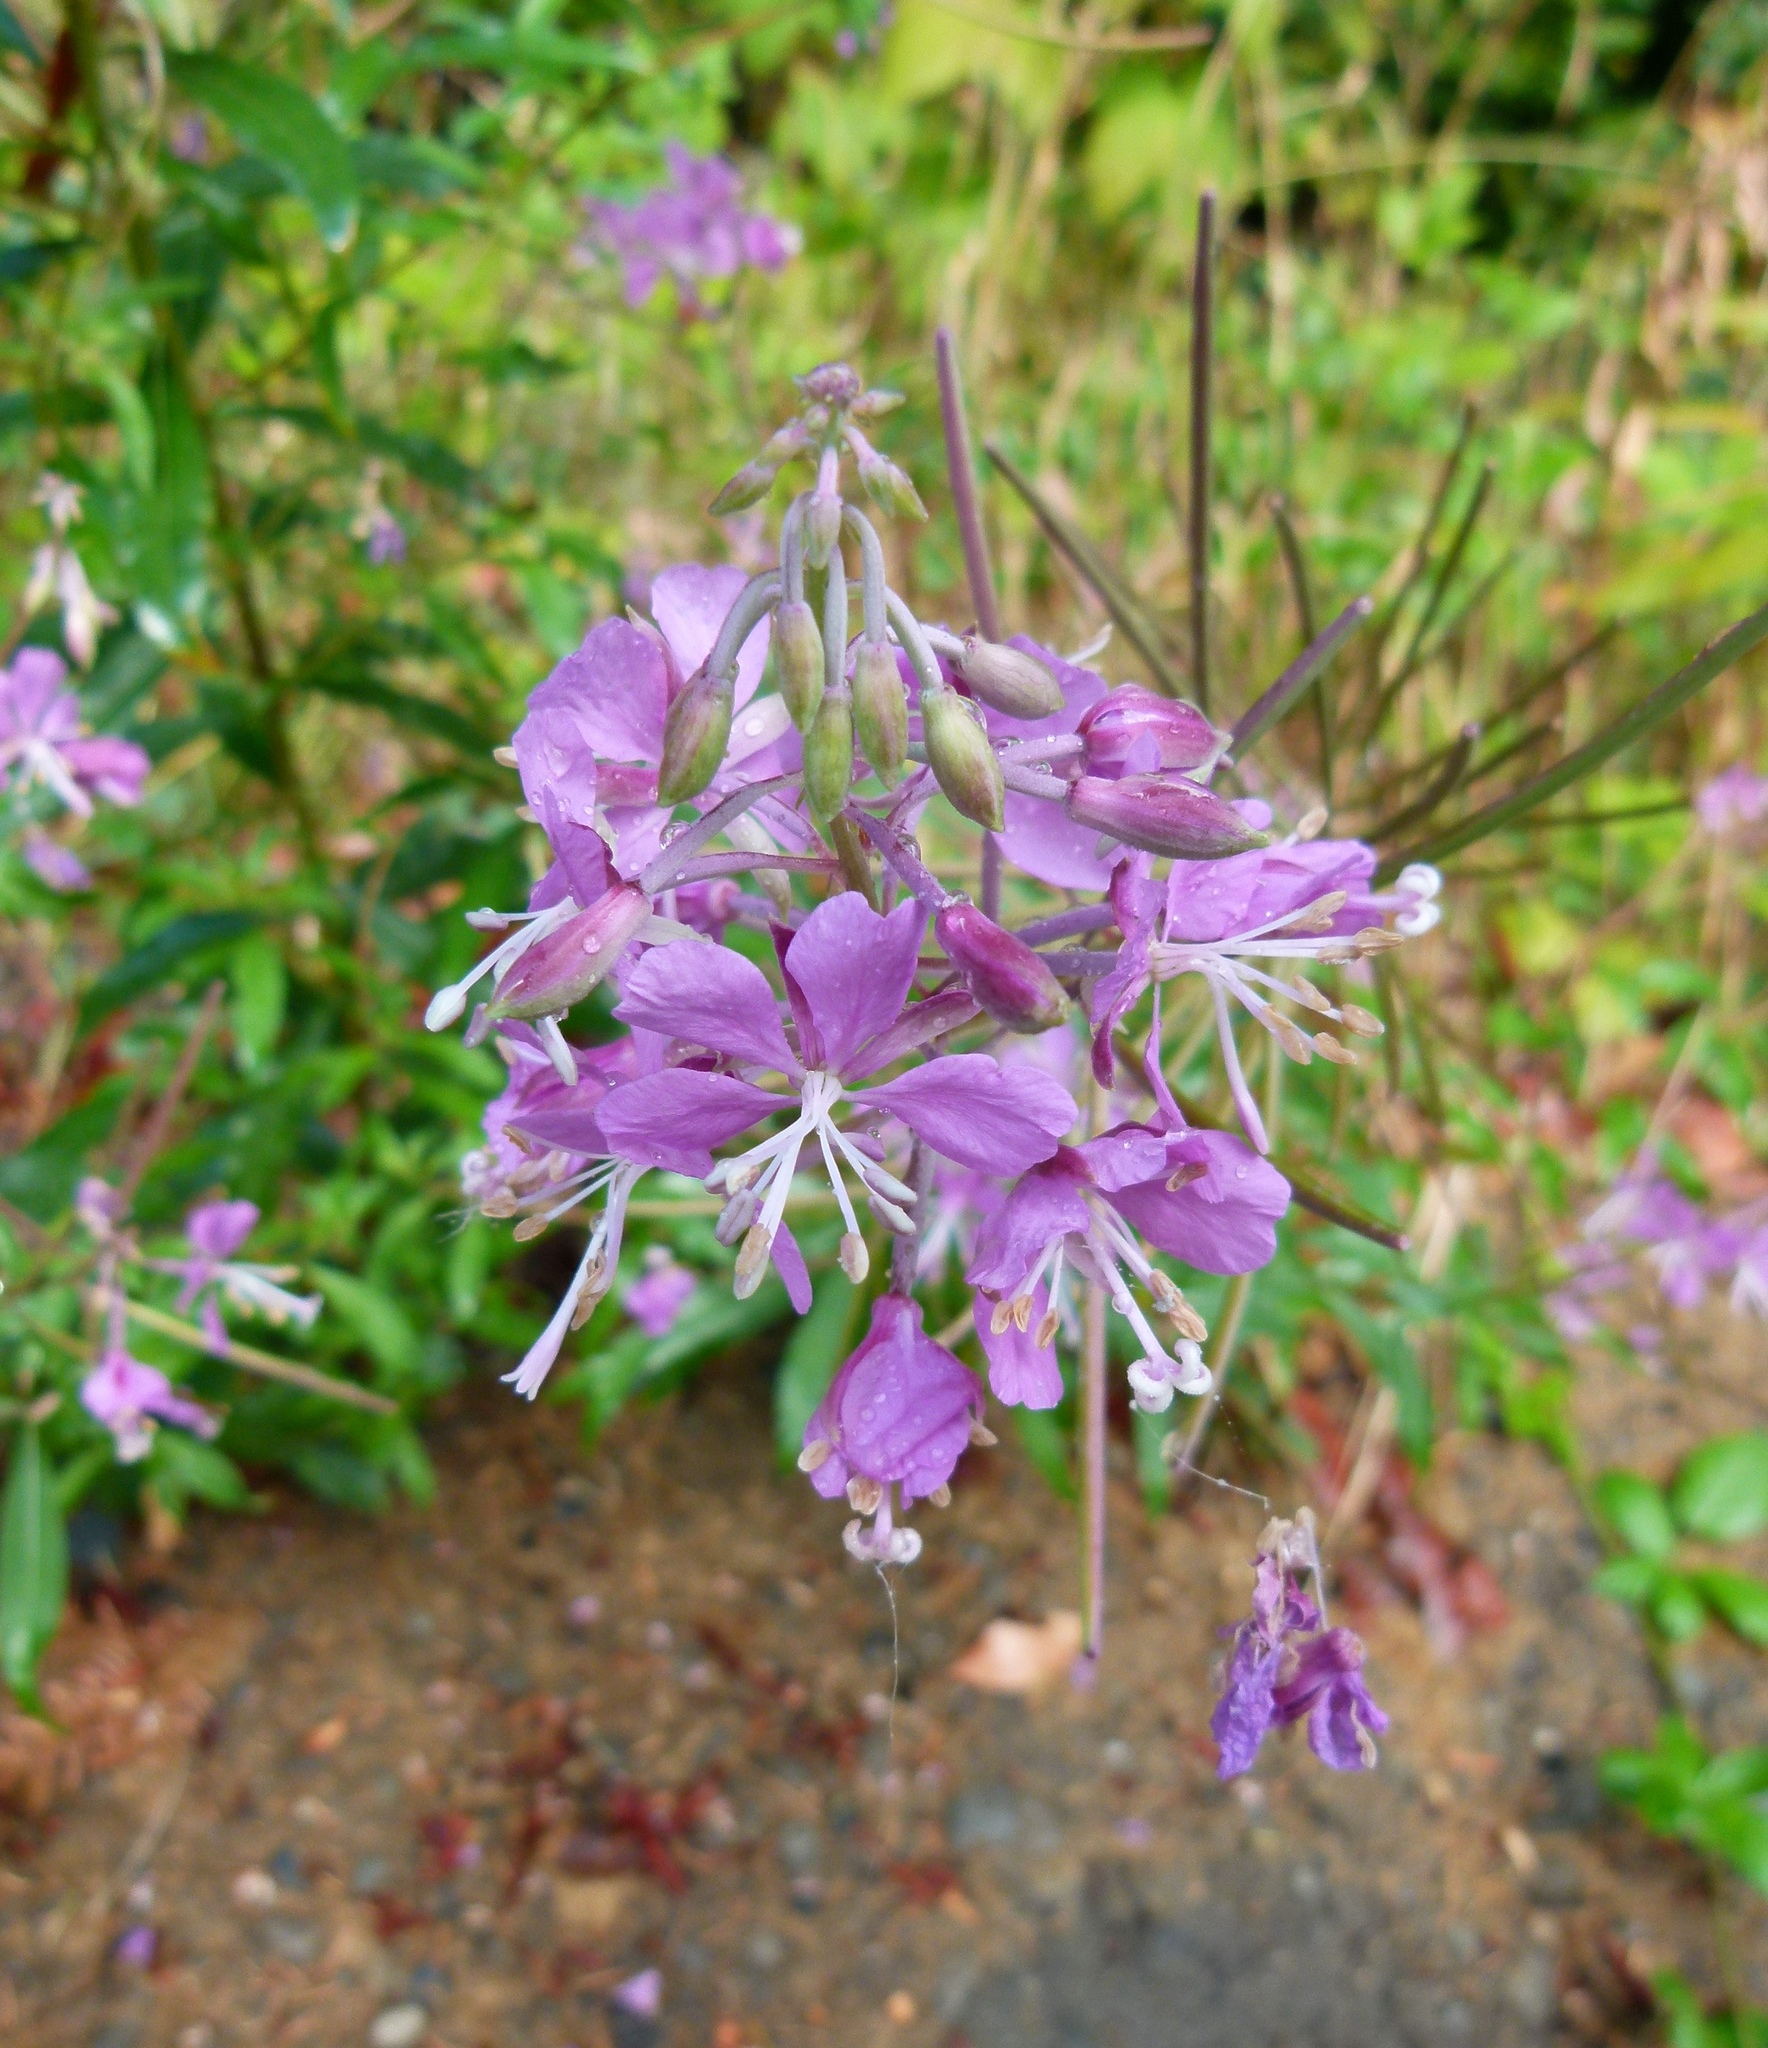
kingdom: Plantae
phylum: Tracheophyta
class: Magnoliopsida
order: Myrtales
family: Onagraceae
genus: Chamaenerion
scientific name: Chamaenerion angustifolium
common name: Fireweed
